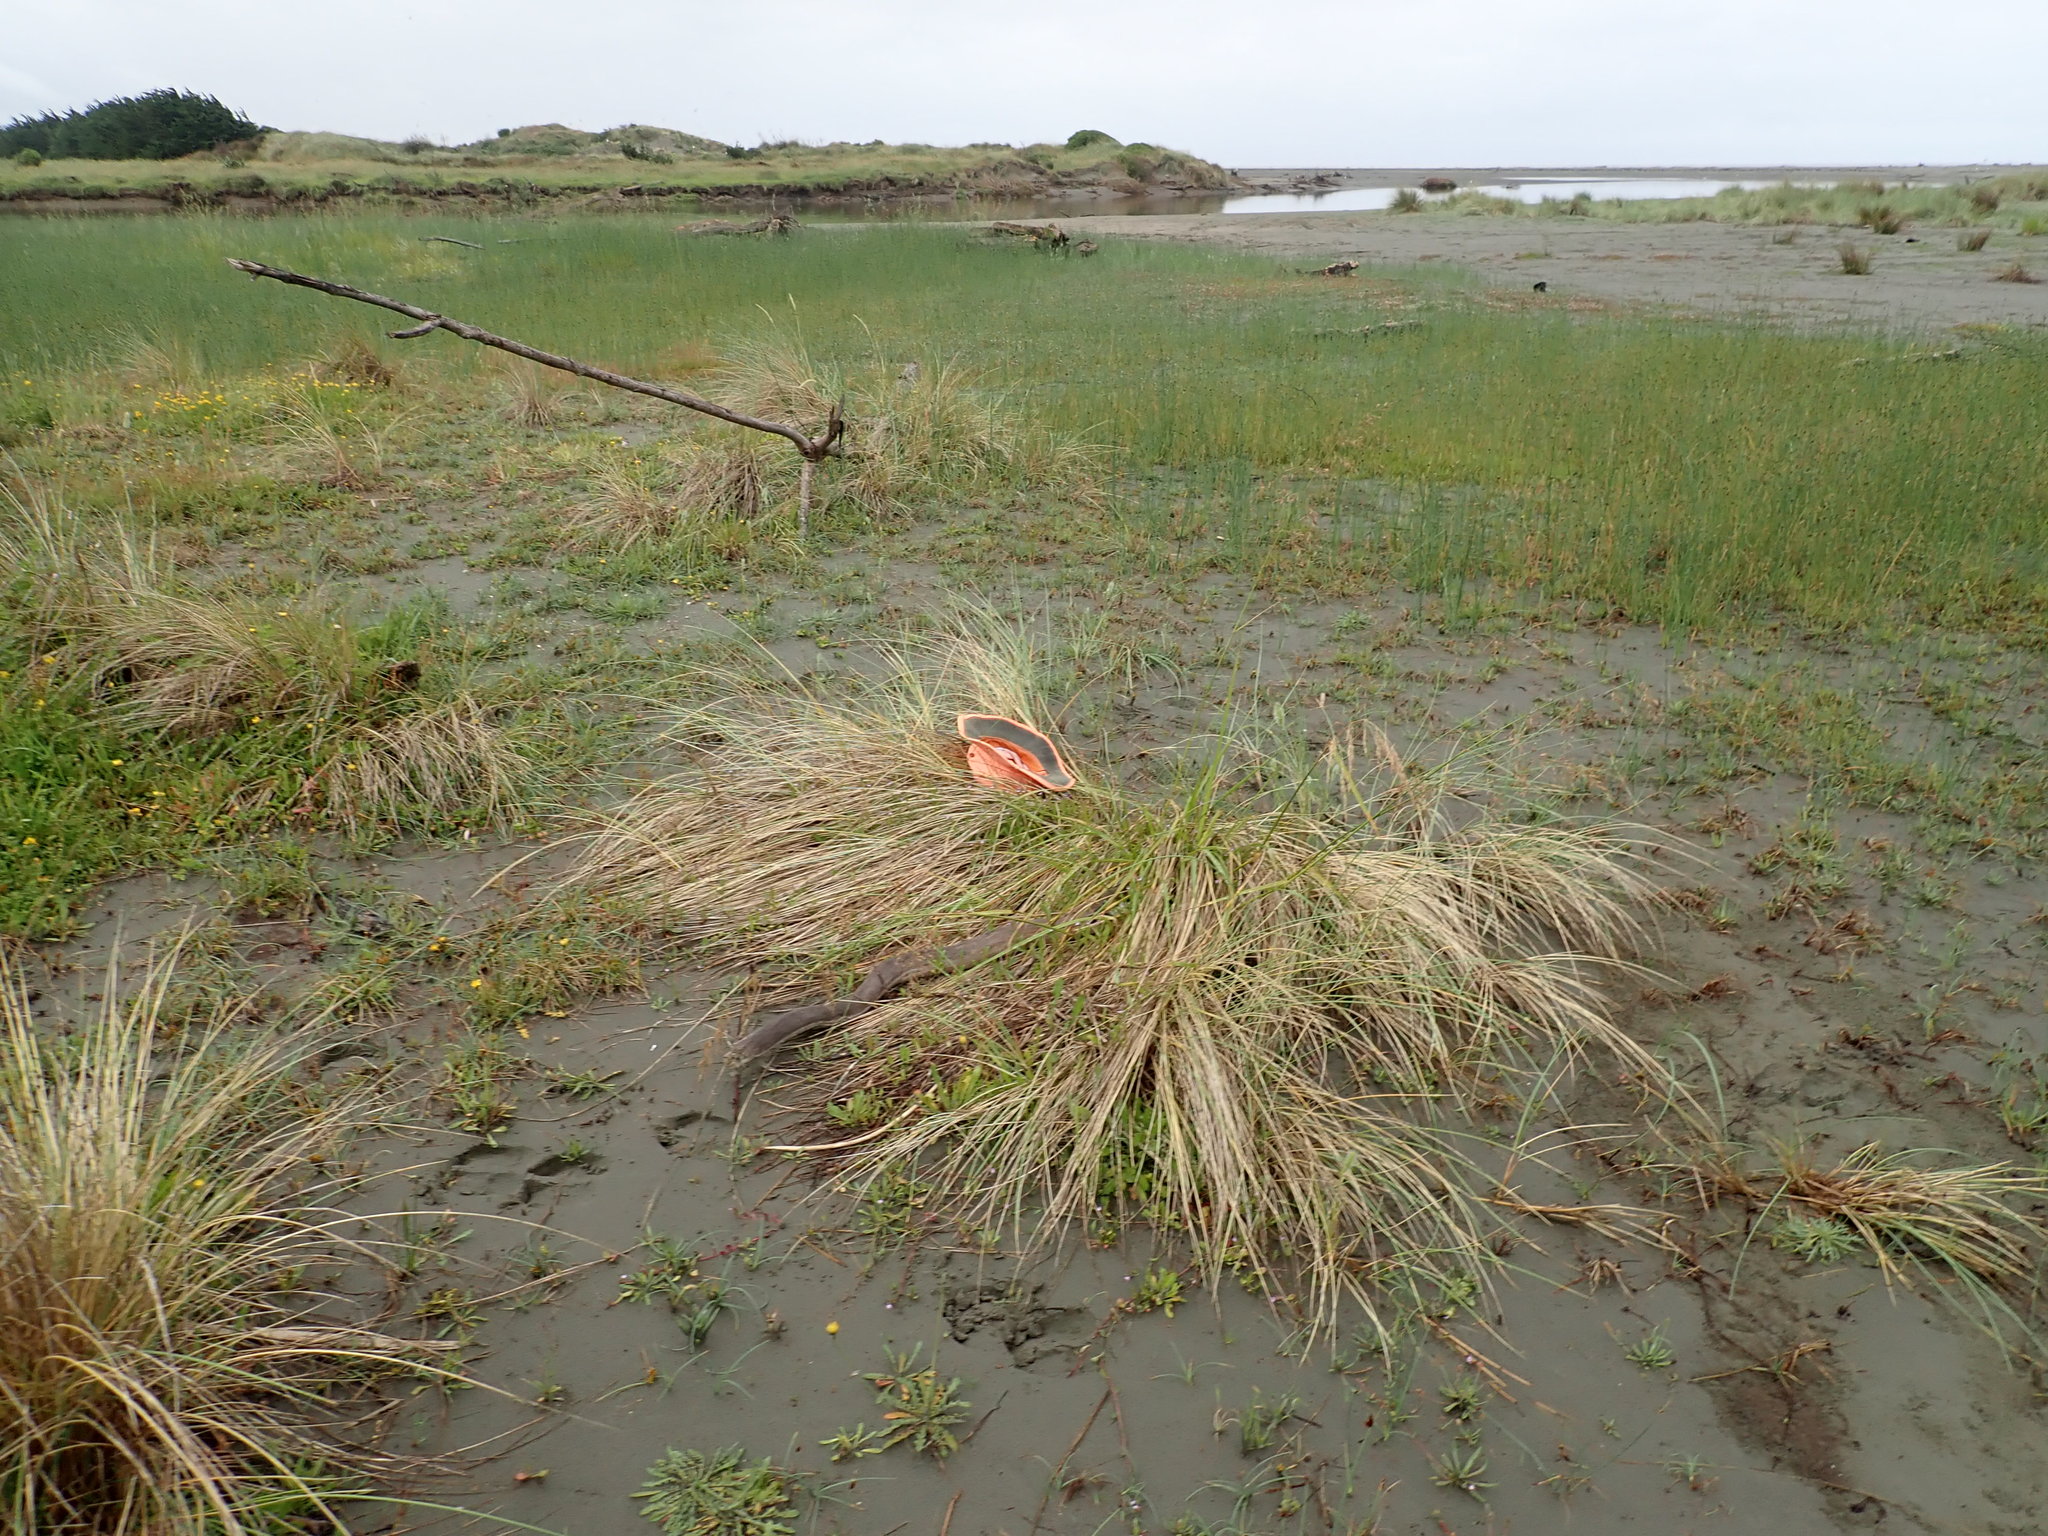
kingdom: Plantae
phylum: Tracheophyta
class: Magnoliopsida
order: Asterales
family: Asteraceae
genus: Leptinella
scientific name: Leptinella dioica
